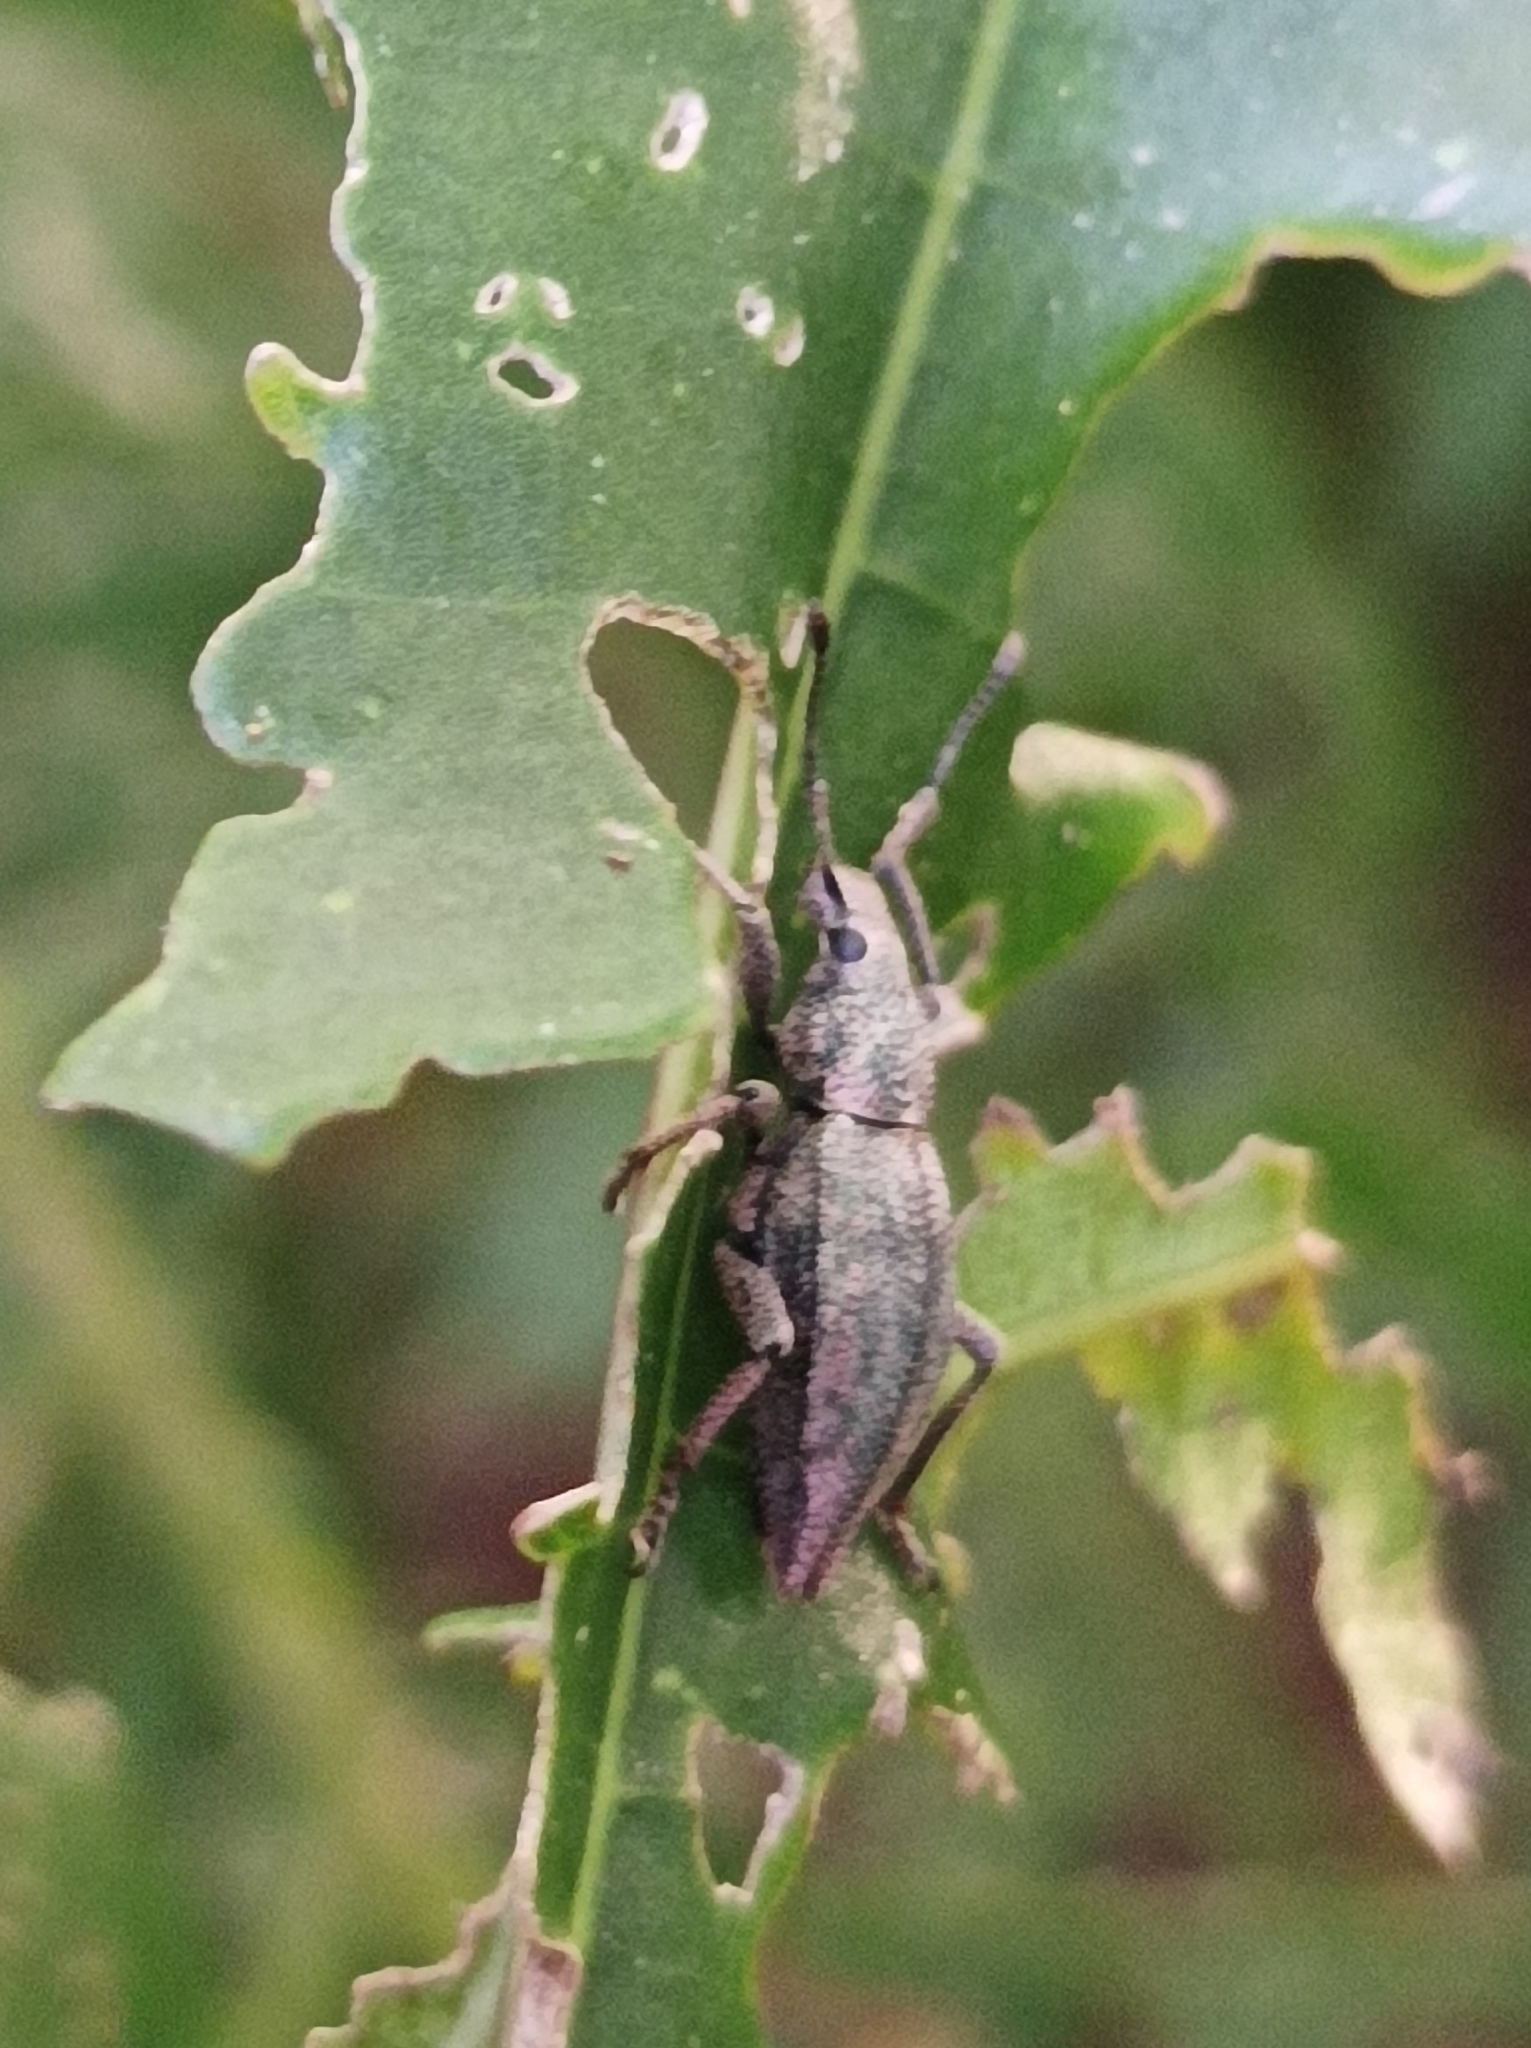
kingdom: Animalia
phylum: Arthropoda
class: Insecta
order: Coleoptera
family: Curculionidae
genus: Elytrurus
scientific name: Elytrurus caudatus
